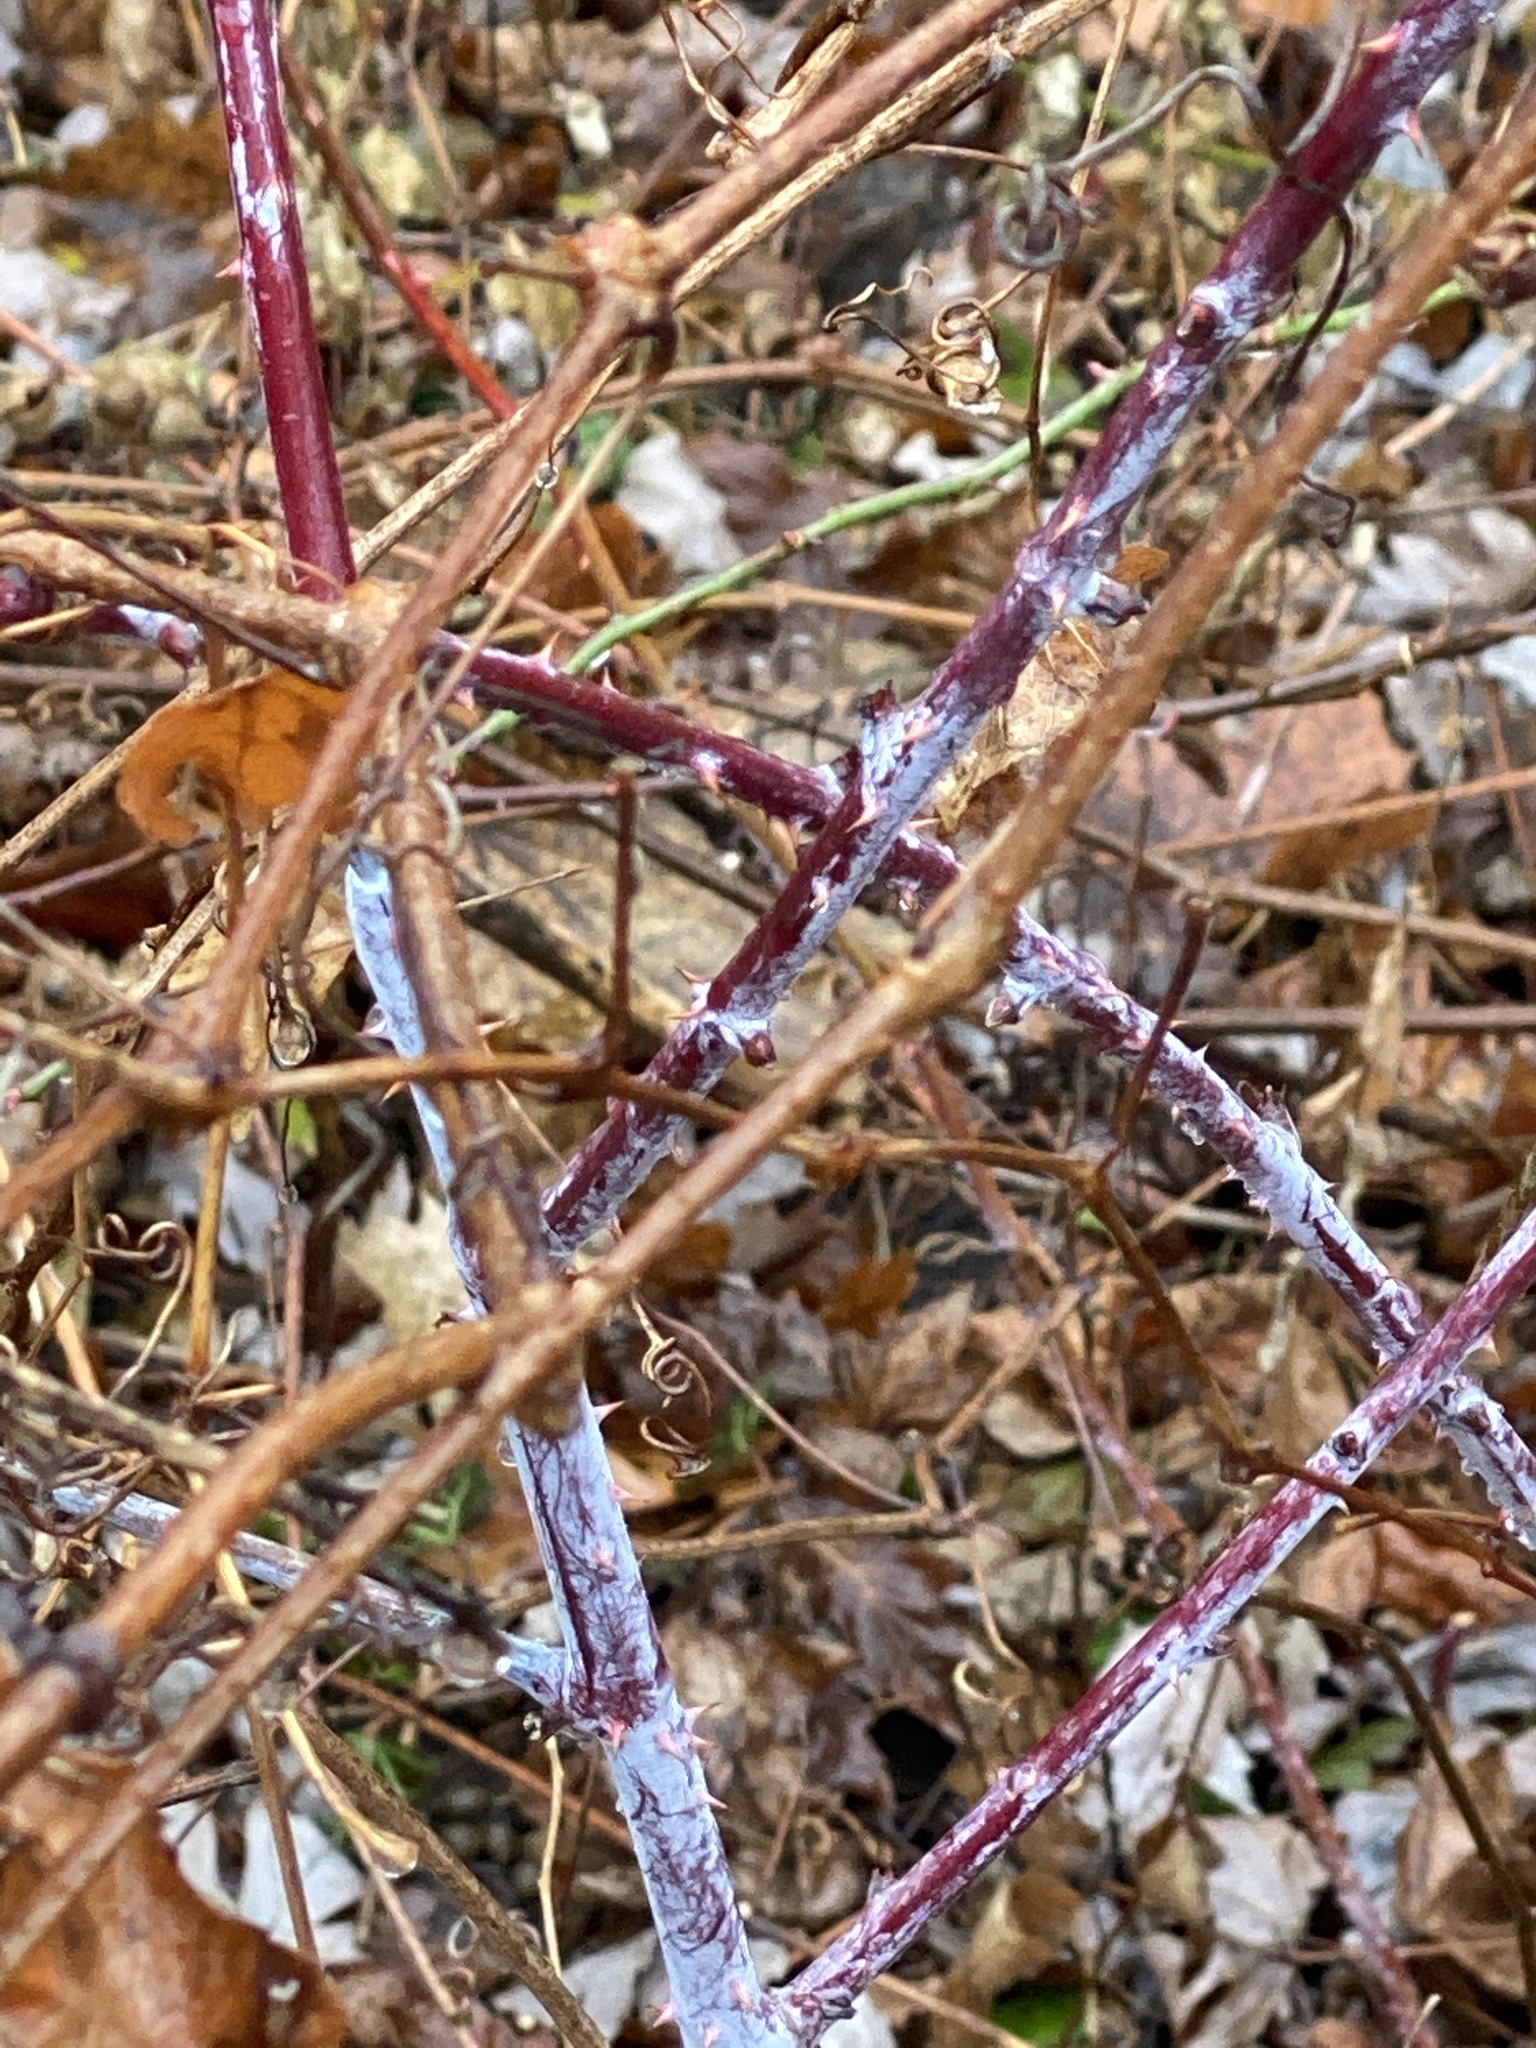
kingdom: Plantae
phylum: Tracheophyta
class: Magnoliopsida
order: Rosales
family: Rosaceae
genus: Rubus
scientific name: Rubus occidentalis
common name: Black raspberry
